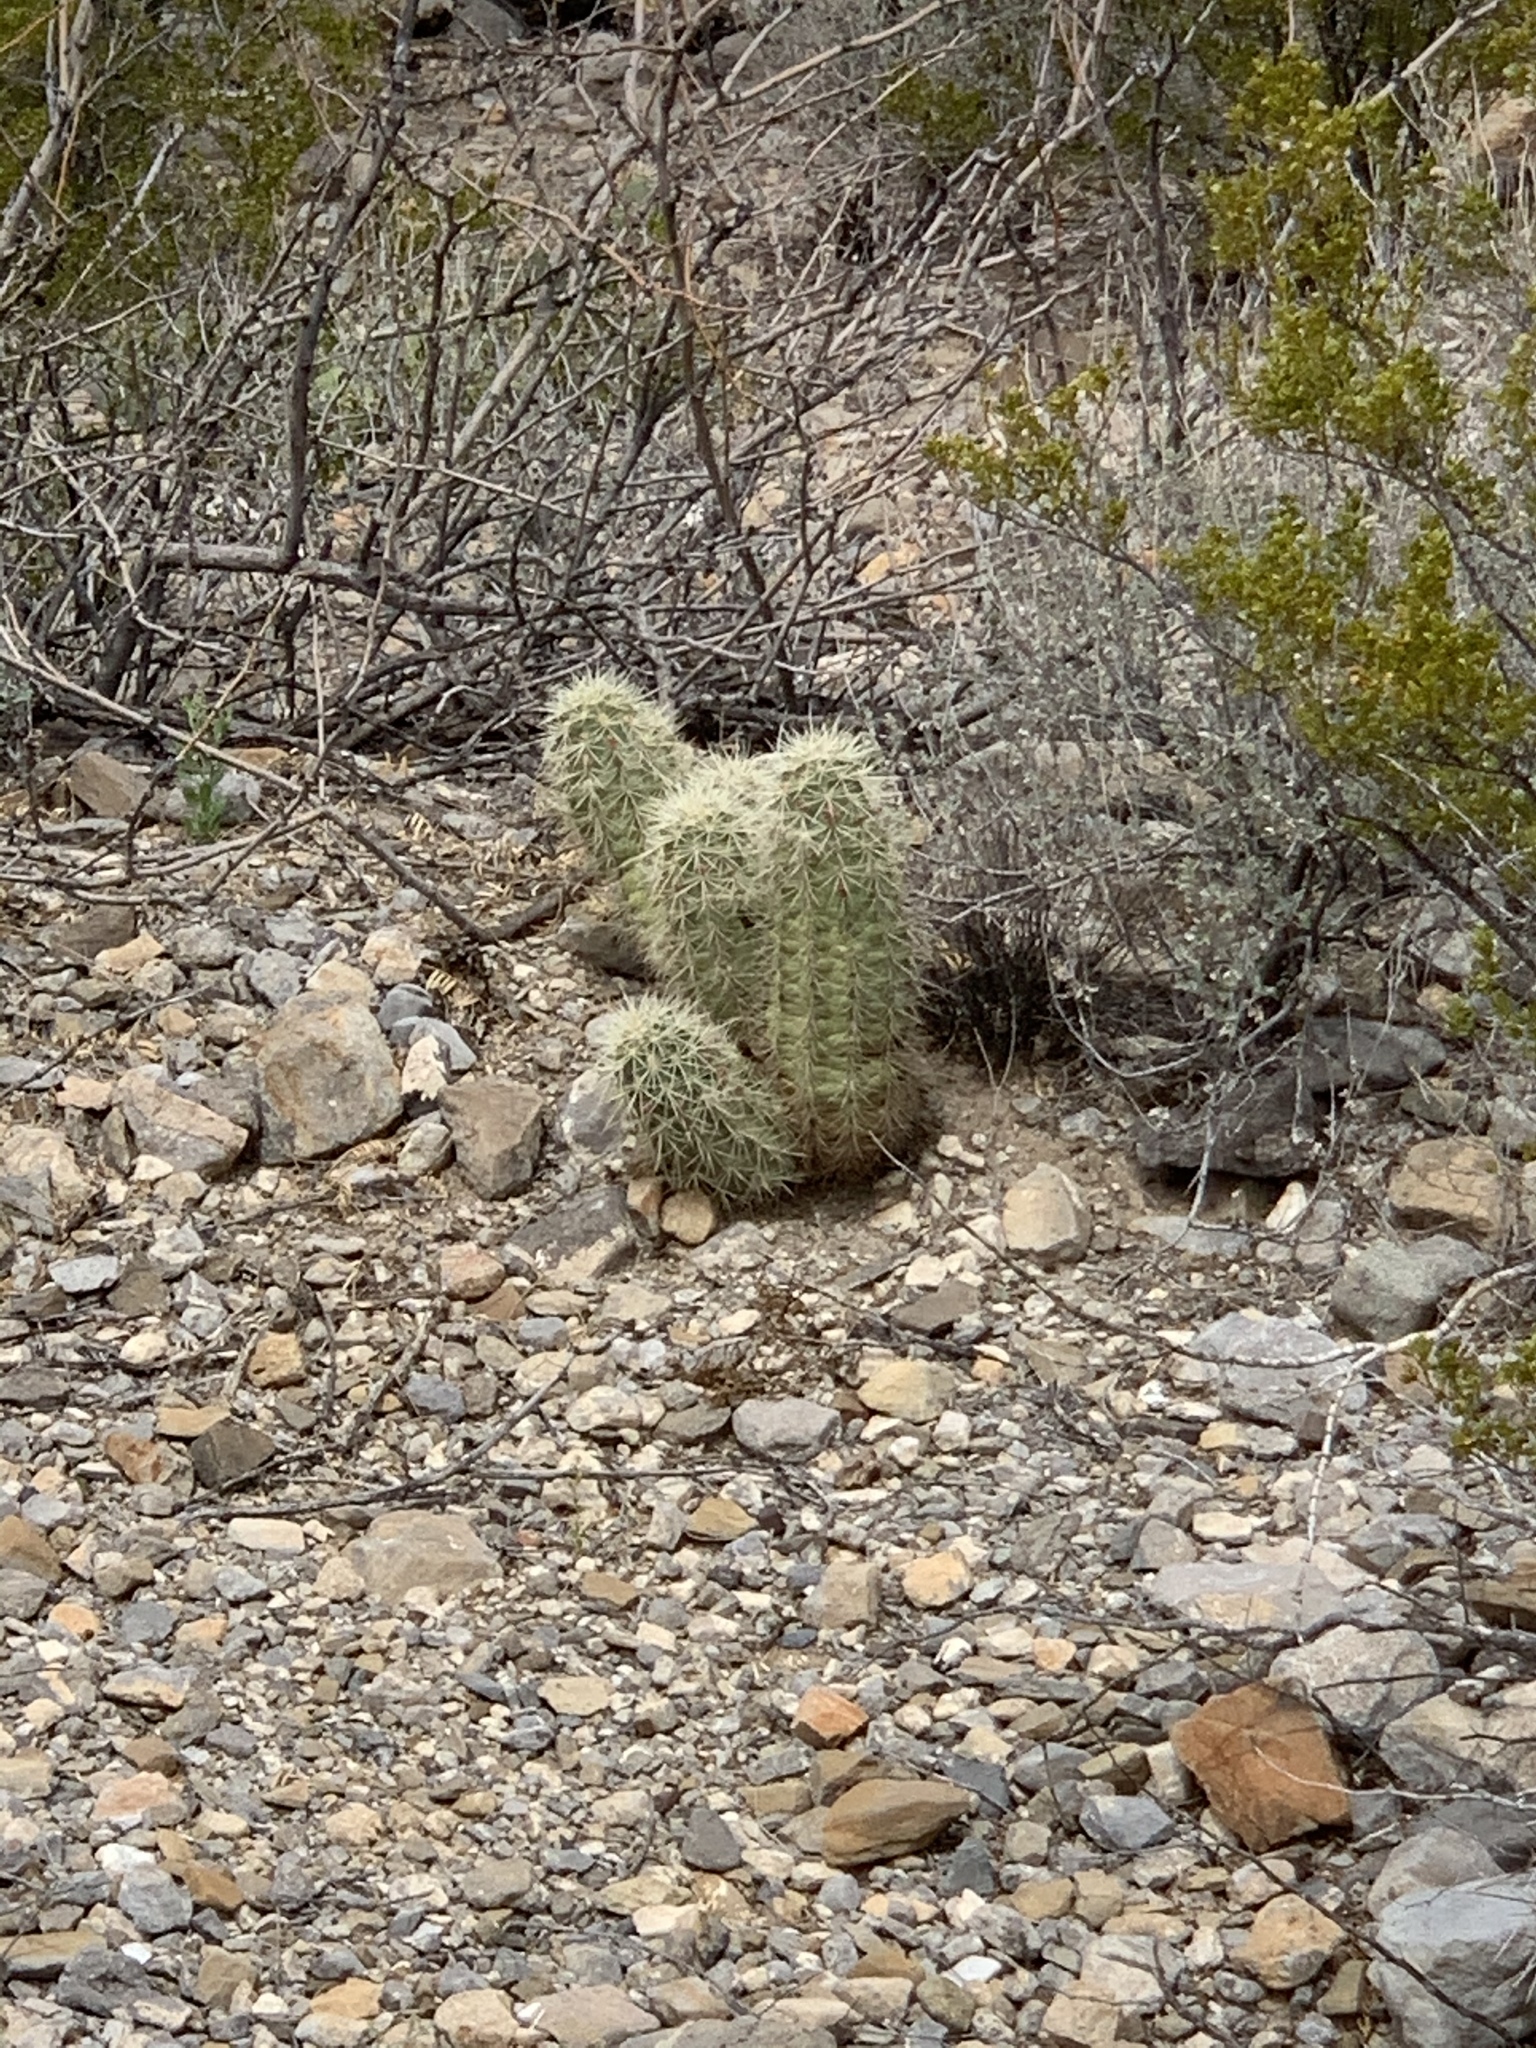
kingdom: Plantae
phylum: Tracheophyta
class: Magnoliopsida
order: Caryophyllales
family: Cactaceae
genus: Echinocereus
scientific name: Echinocereus coccineus
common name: Scarlet hedgehog cactus
